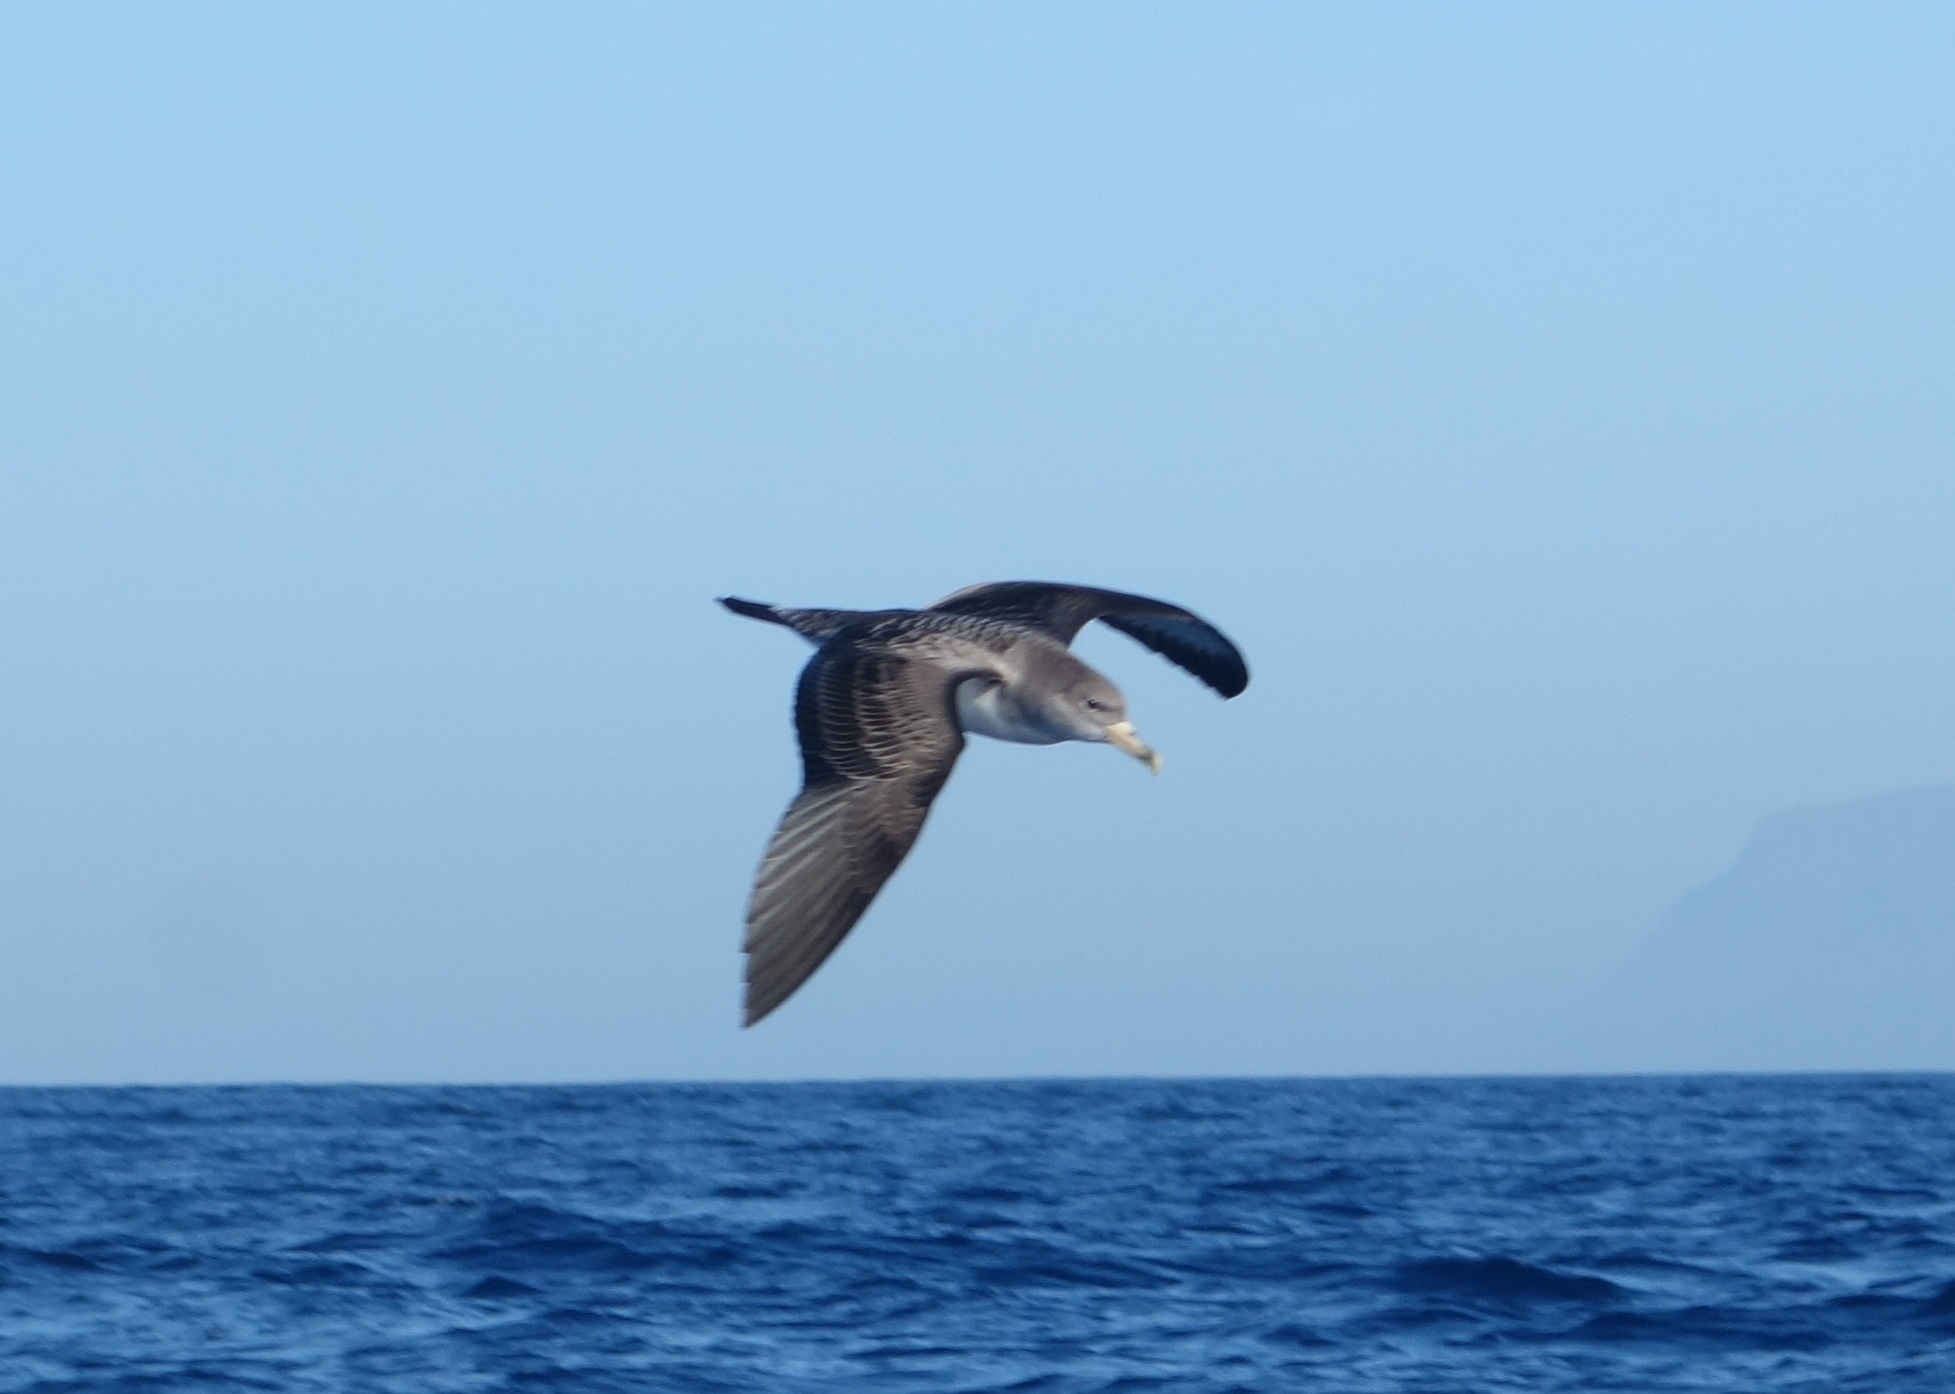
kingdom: Animalia
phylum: Chordata
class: Aves
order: Procellariiformes
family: Procellariidae
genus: Calonectris
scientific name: Calonectris diomedea
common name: Cory's shearwater
